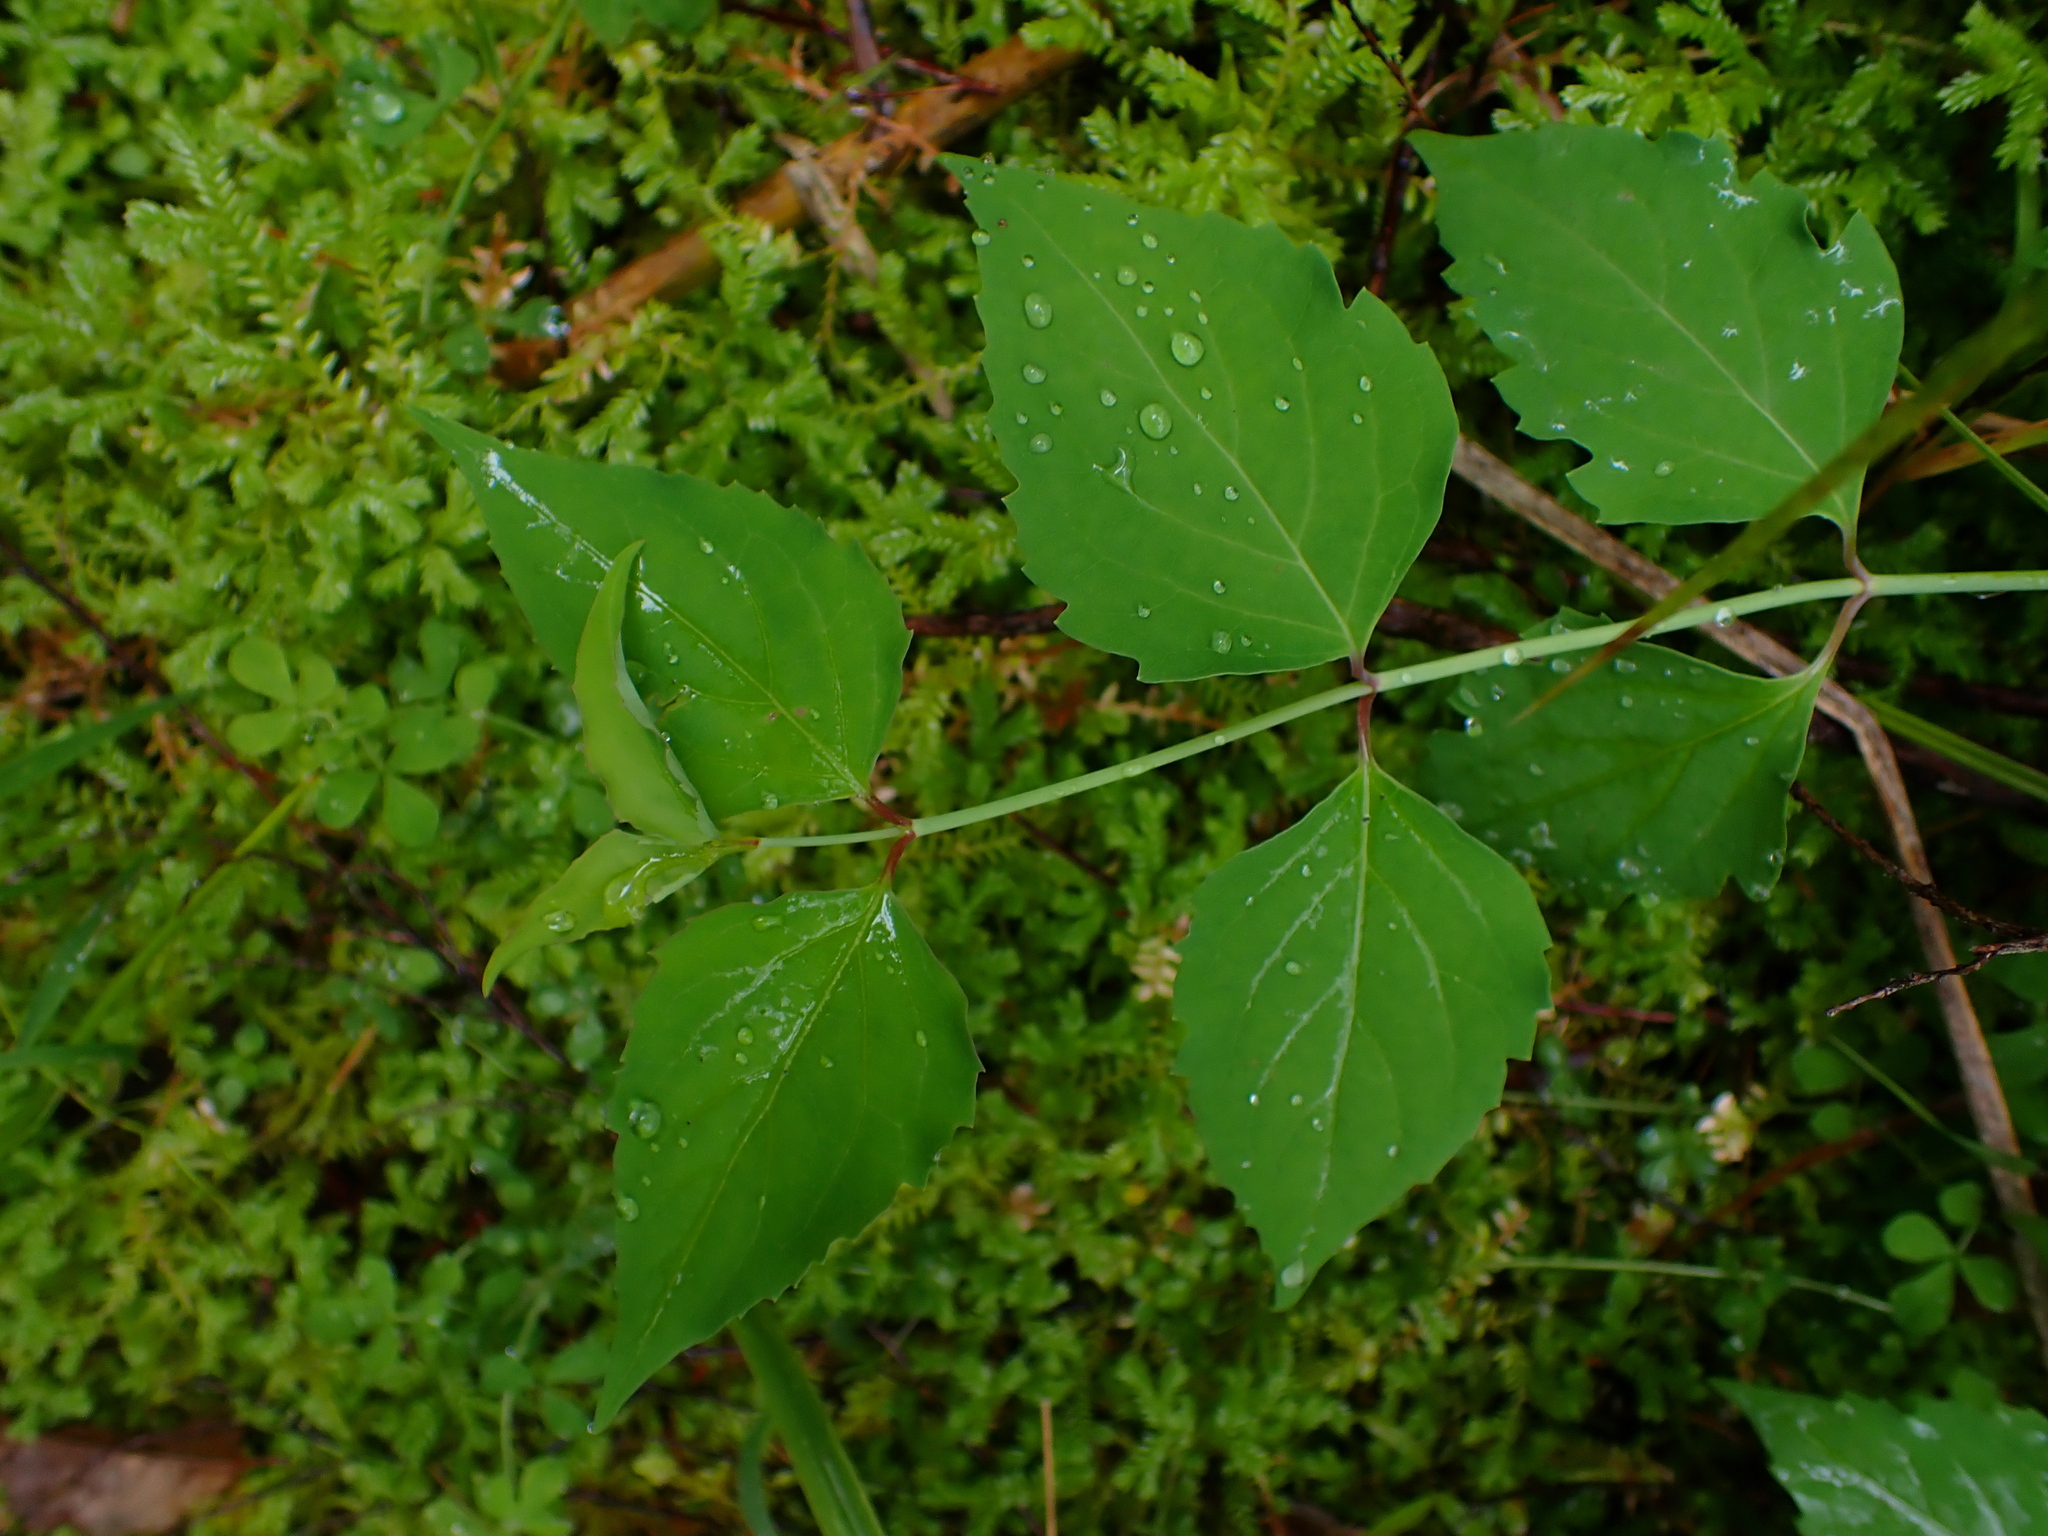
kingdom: Plantae
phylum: Tracheophyta
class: Magnoliopsida
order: Dipsacales
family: Caprifoliaceae
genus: Leycesteria
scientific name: Leycesteria formosa
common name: Himalayan honeysuckle
